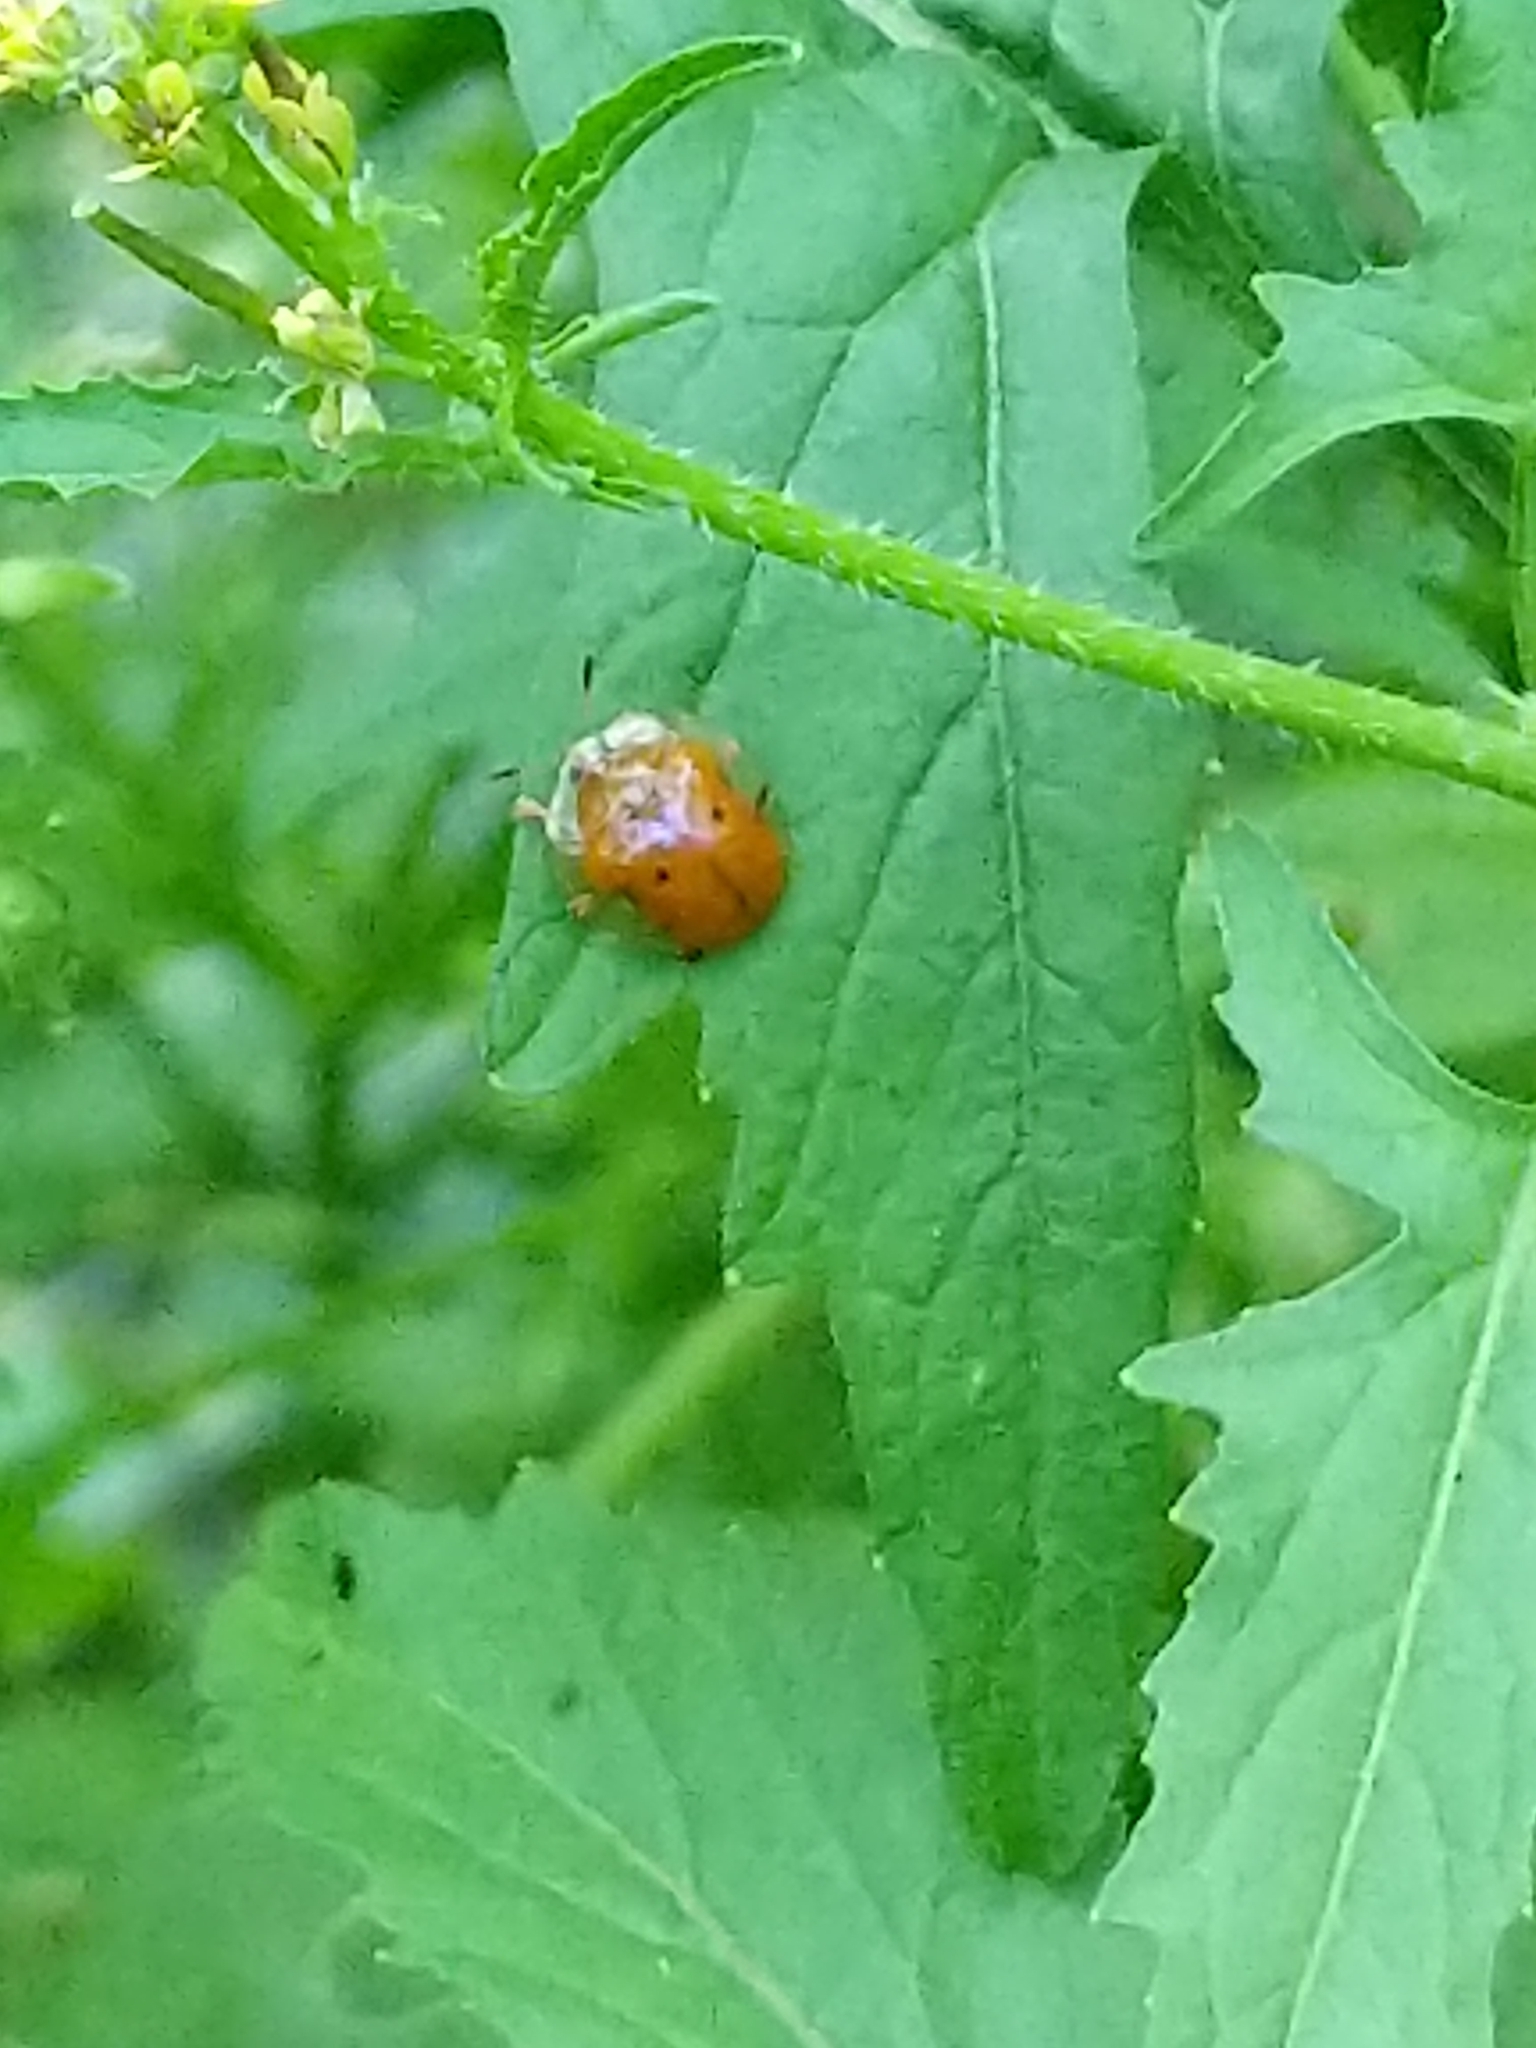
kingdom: Animalia
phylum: Arthropoda
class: Insecta
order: Coleoptera
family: Chrysomelidae
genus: Charidotella
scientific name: Charidotella sexpunctata
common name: Golden tortoise beetle
